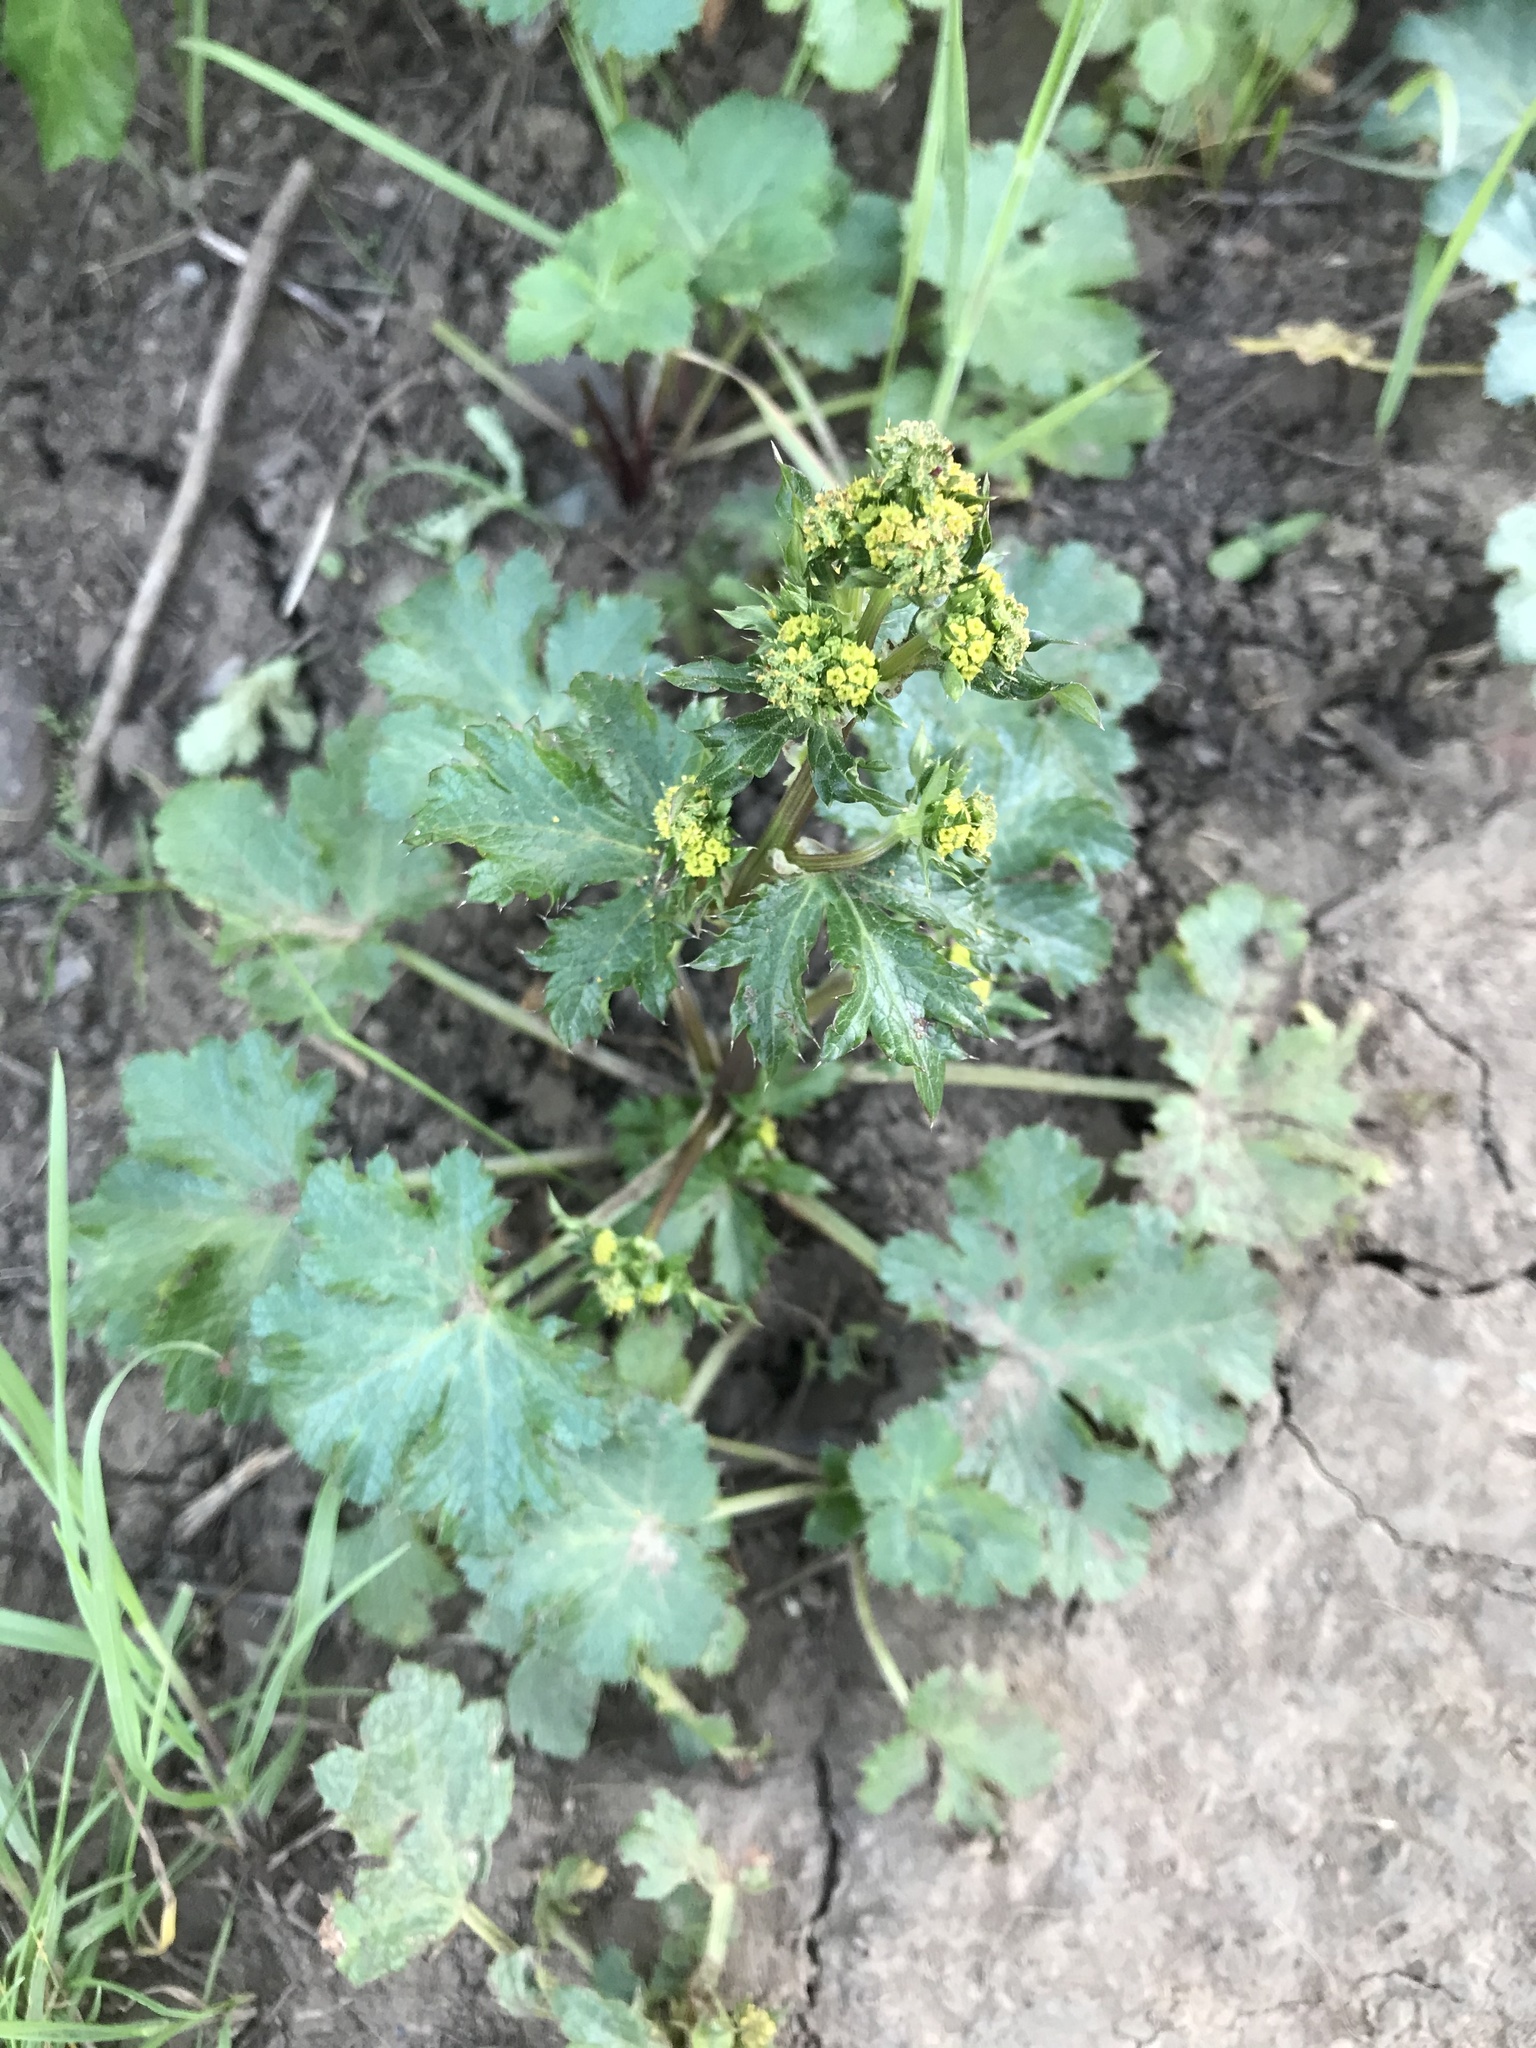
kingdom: Plantae
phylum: Tracheophyta
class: Magnoliopsida
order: Apiales
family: Apiaceae
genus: Sanicula
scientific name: Sanicula crassicaulis
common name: Western snakeroot
